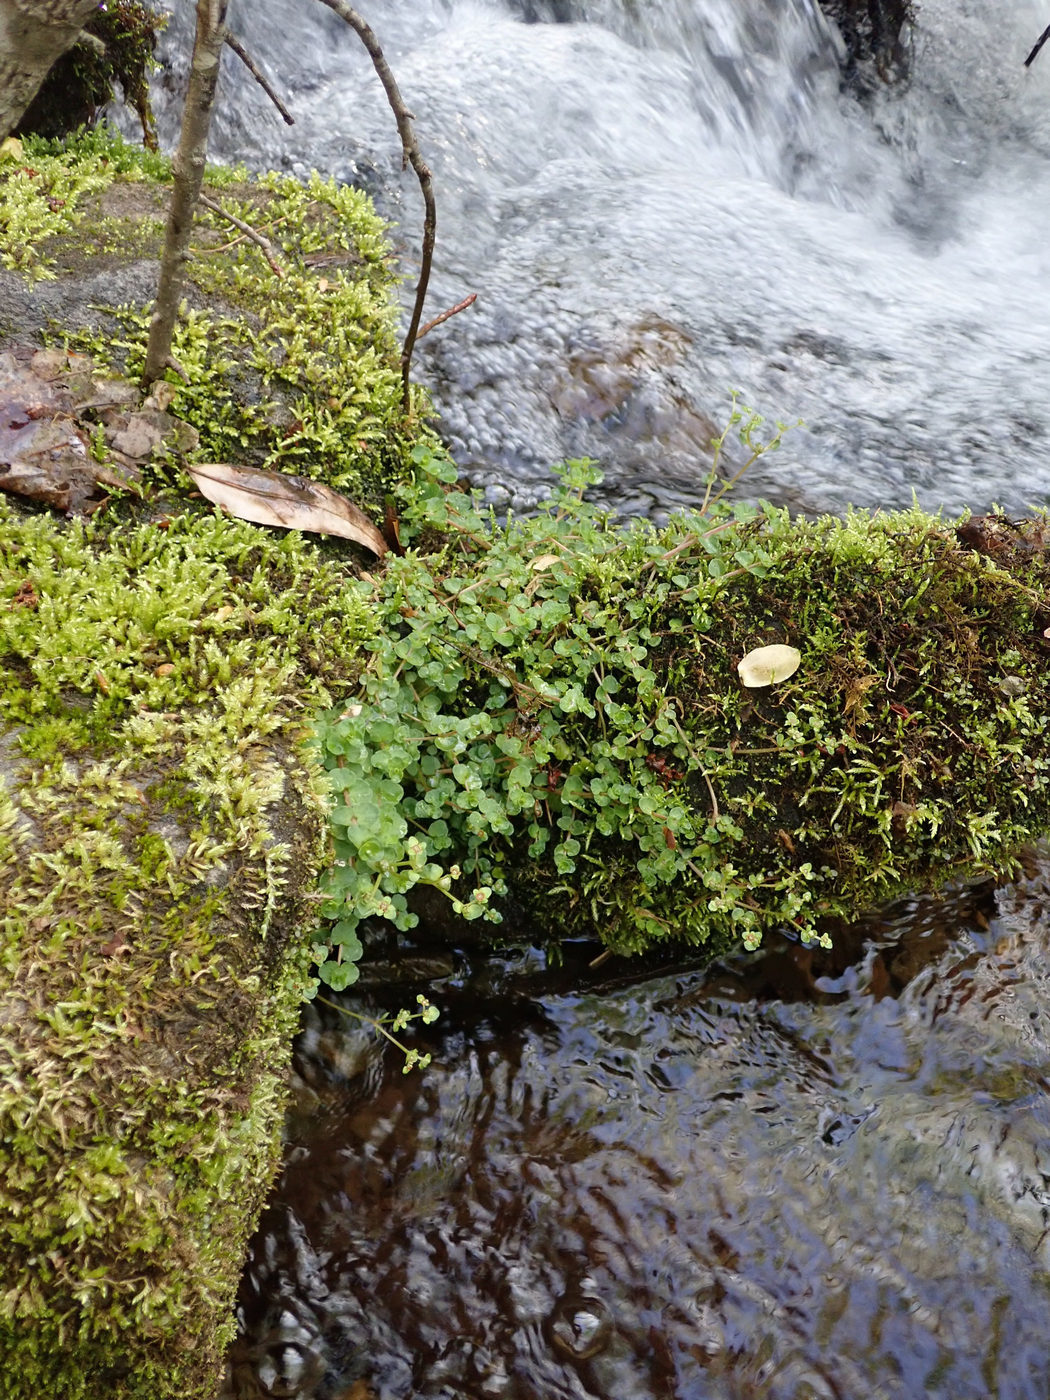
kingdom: Plantae
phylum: Tracheophyta
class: Magnoliopsida
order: Saxifragales
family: Saxifragaceae
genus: Chrysosplenium
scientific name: Chrysosplenium americanum
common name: American golden-saxifrage
